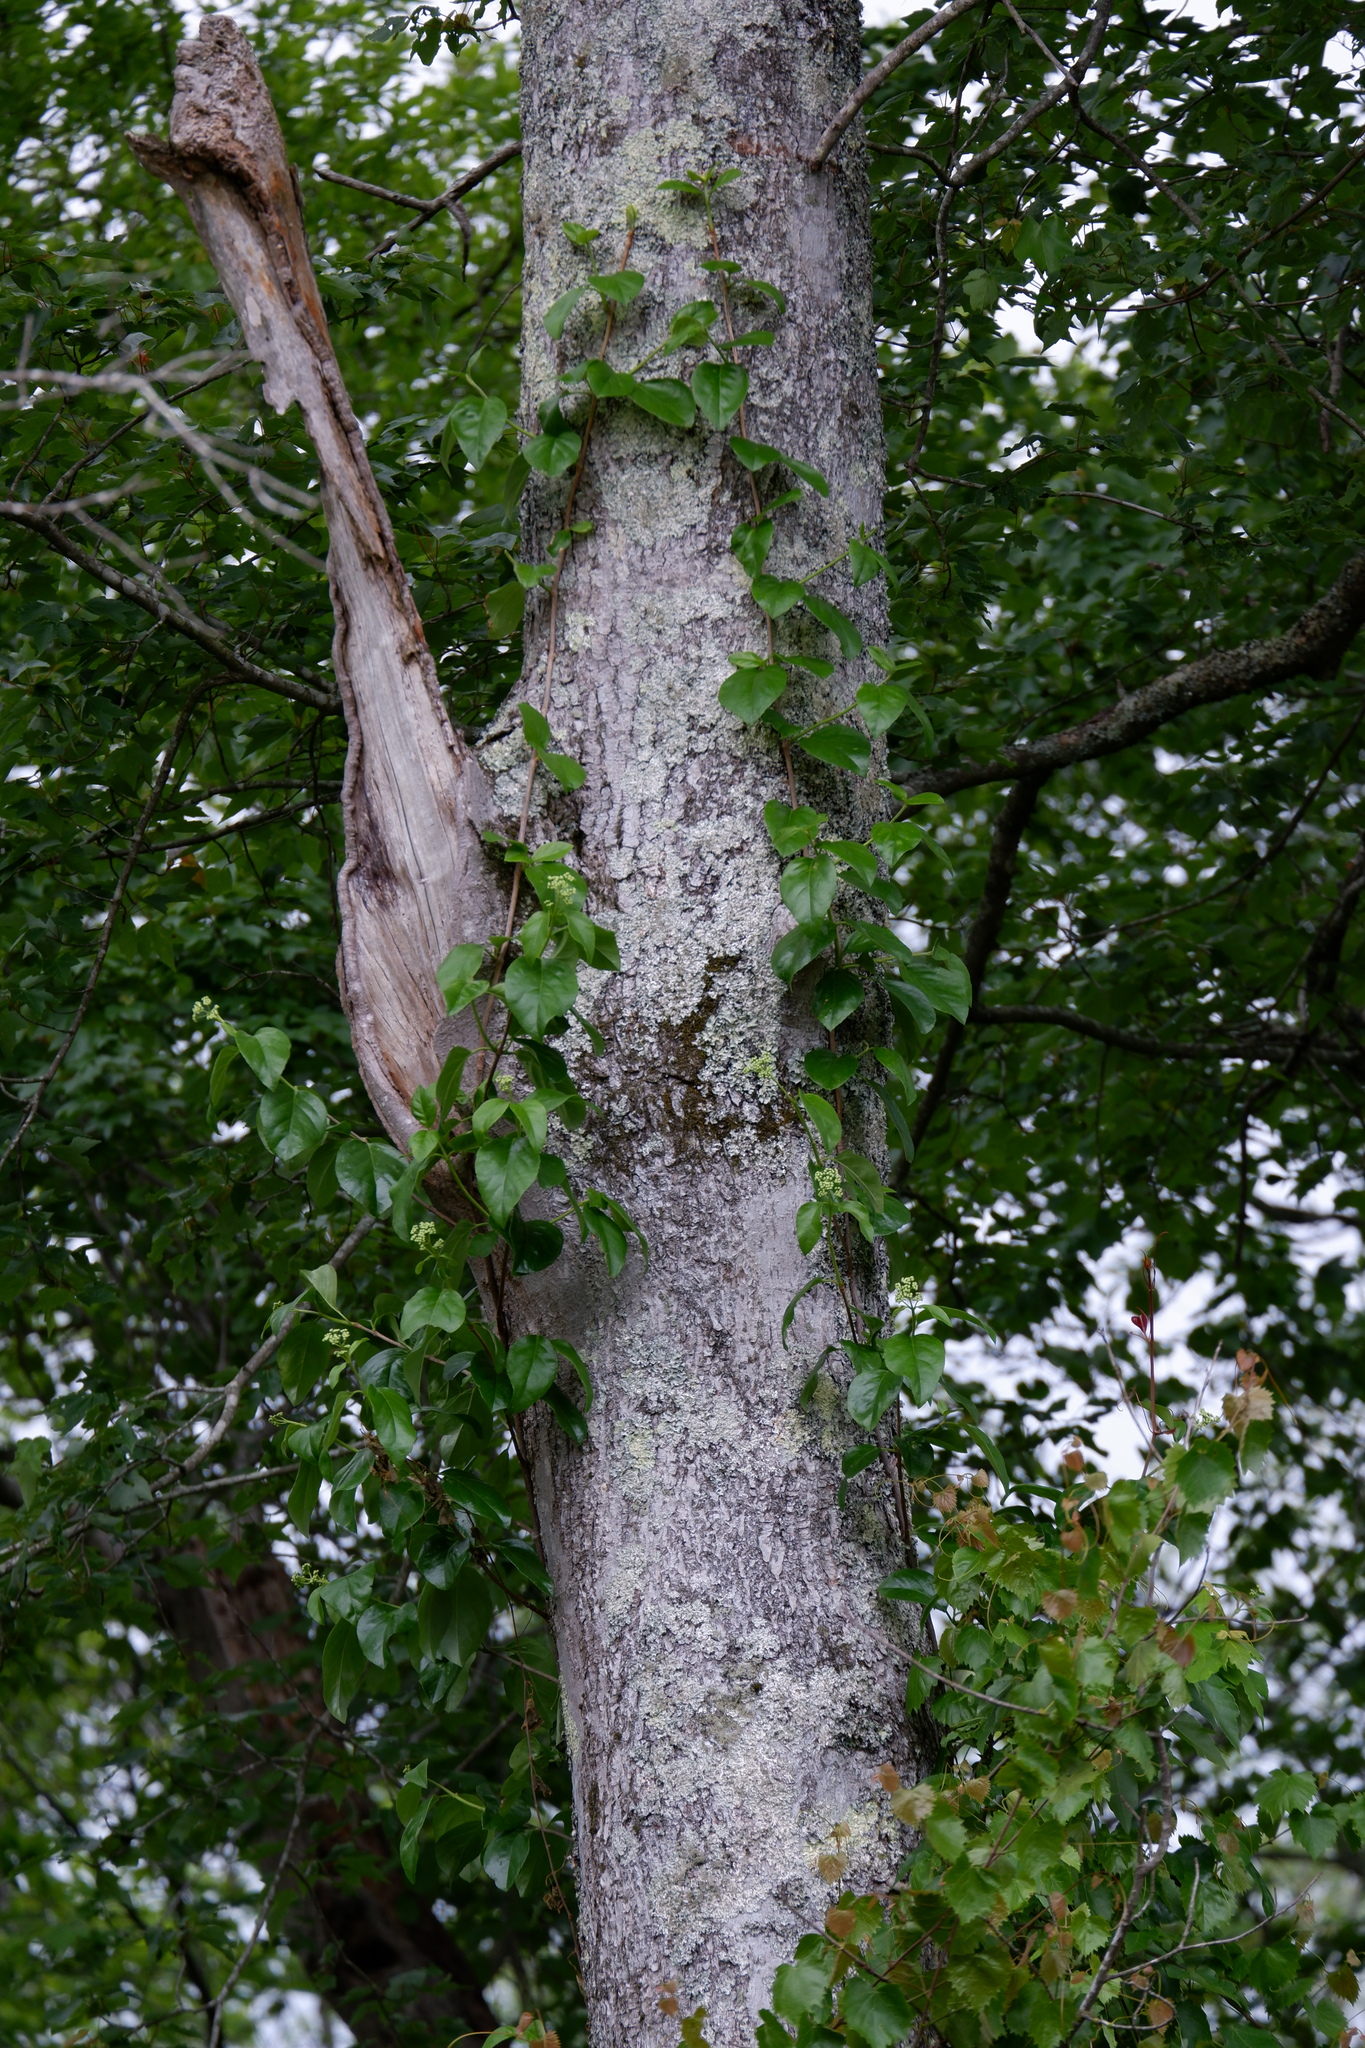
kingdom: Plantae
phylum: Tracheophyta
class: Magnoliopsida
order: Cornales
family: Hydrangeaceae
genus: Hydrangea
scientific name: Hydrangea barbara
